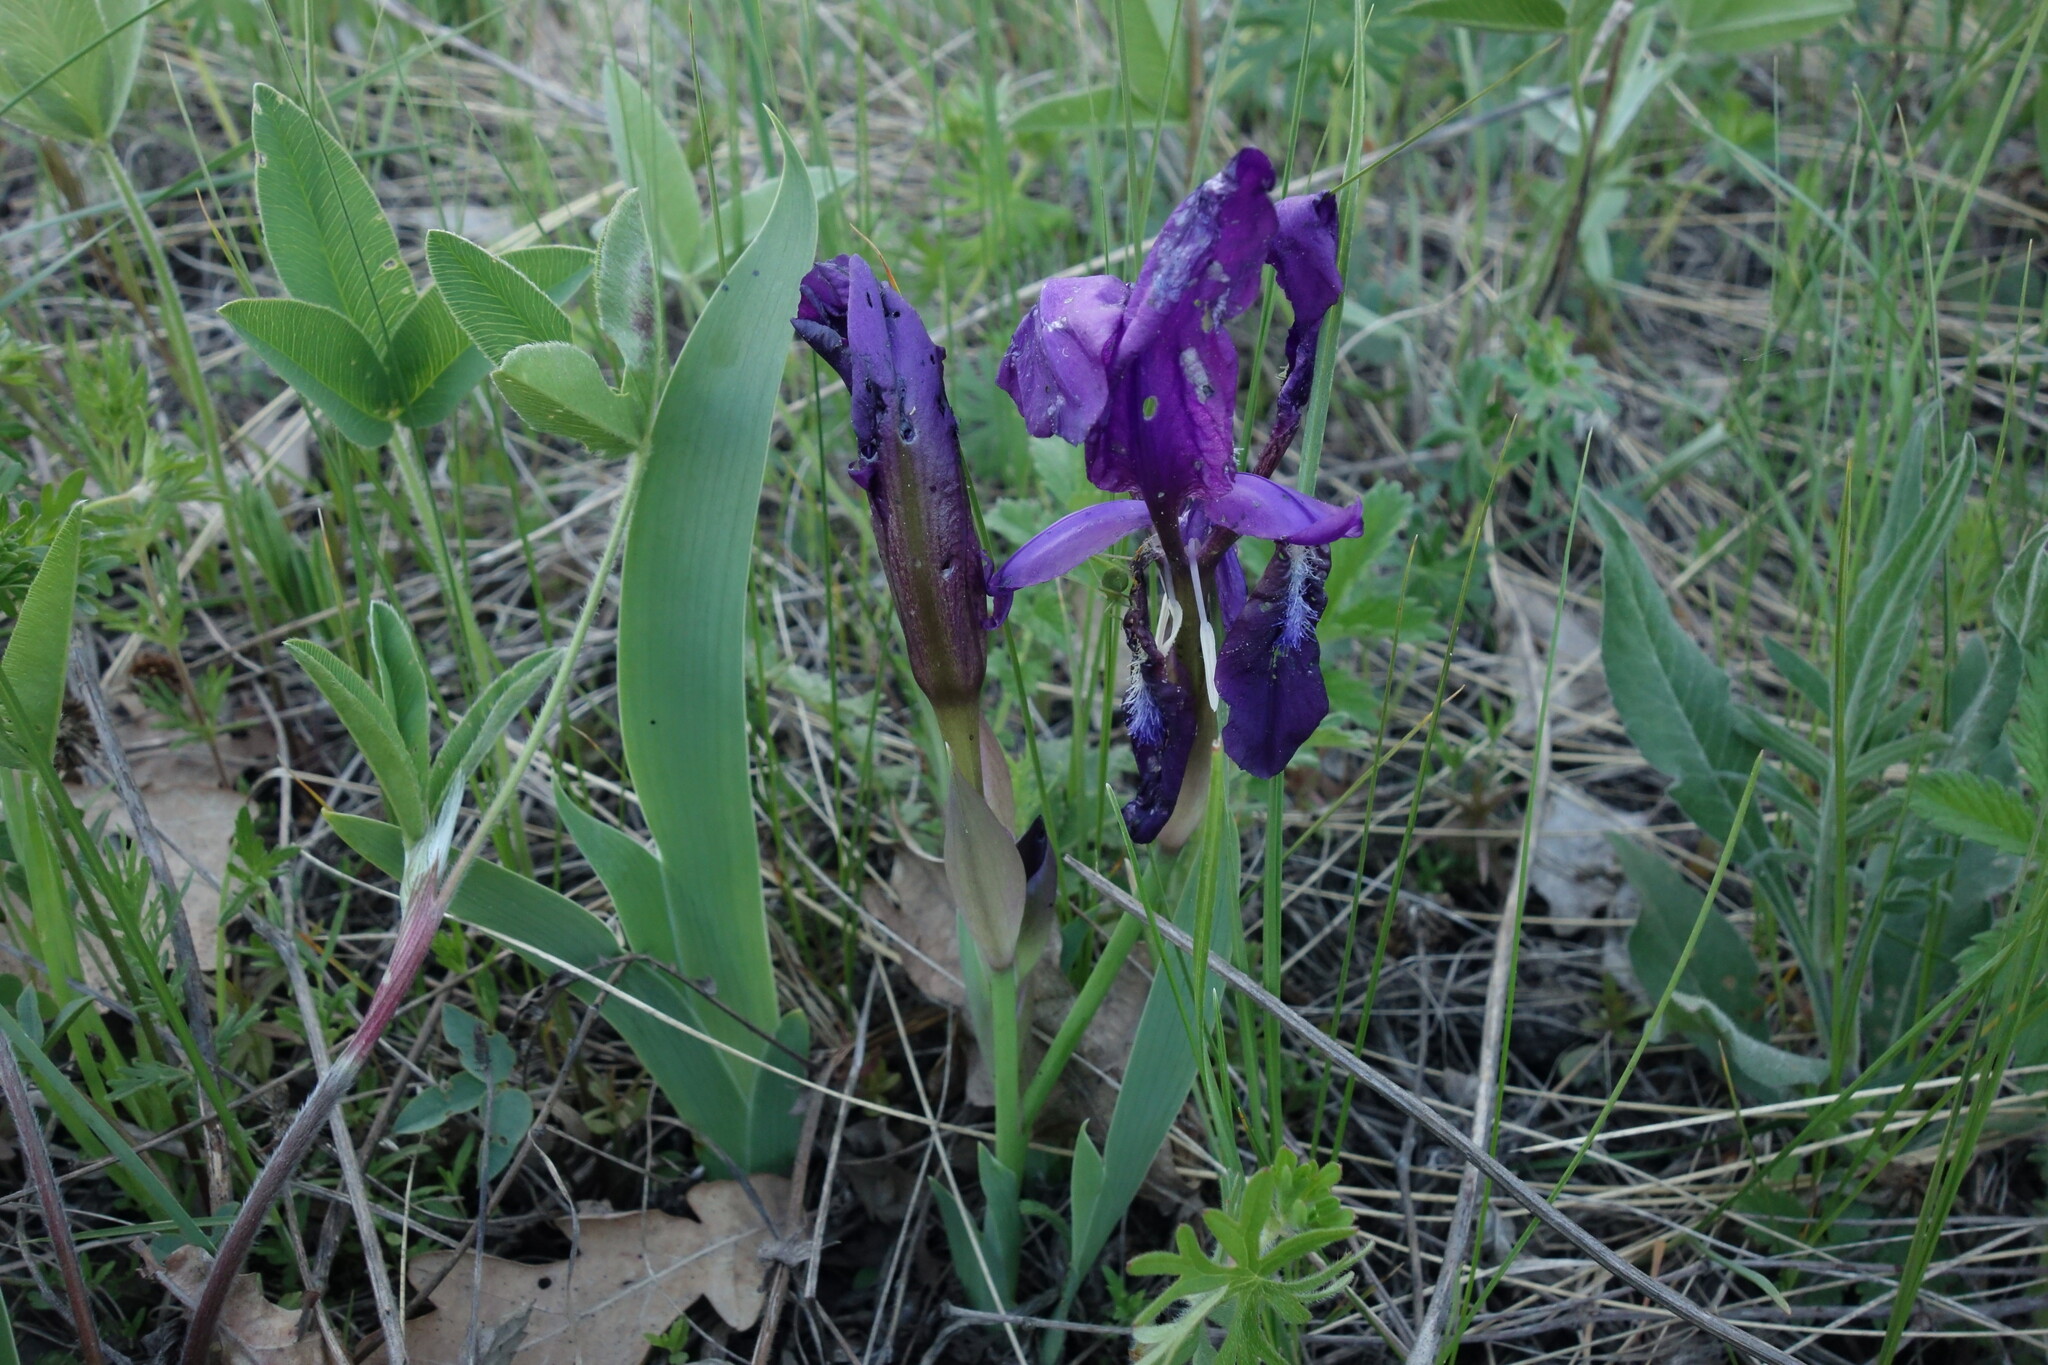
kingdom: Plantae
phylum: Tracheophyta
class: Liliopsida
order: Asparagales
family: Iridaceae
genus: Iris
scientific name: Iris aphylla
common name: Stool iris
